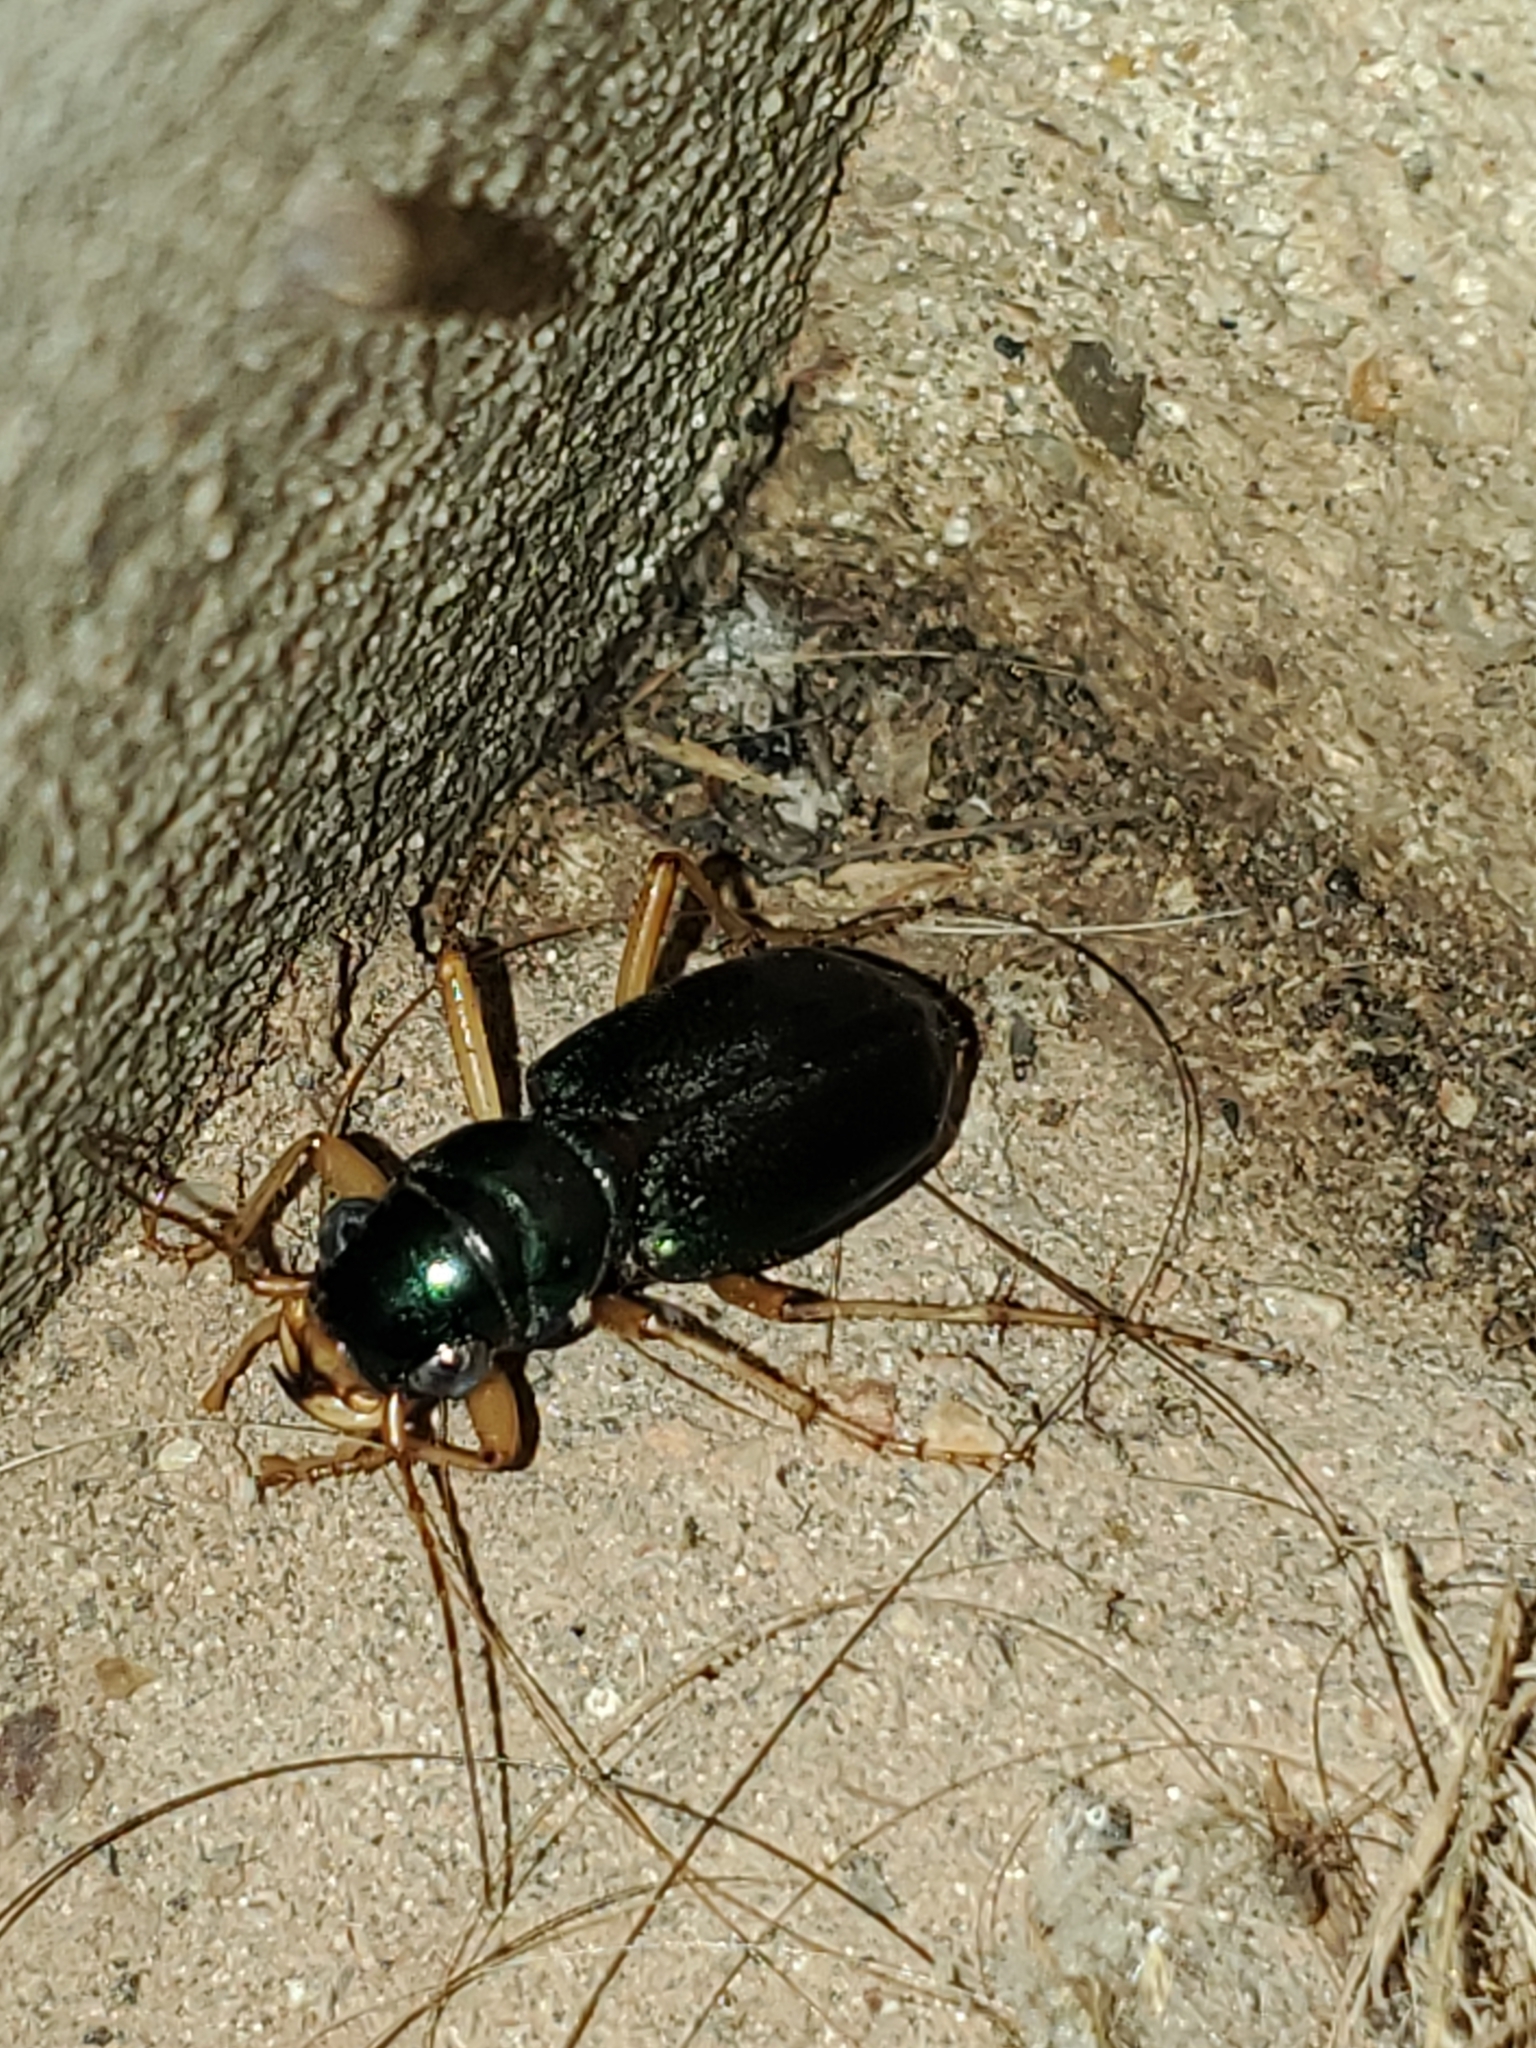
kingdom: Animalia
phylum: Arthropoda
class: Insecta
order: Coleoptera
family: Carabidae
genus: Tetracha
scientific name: Tetracha virginica
